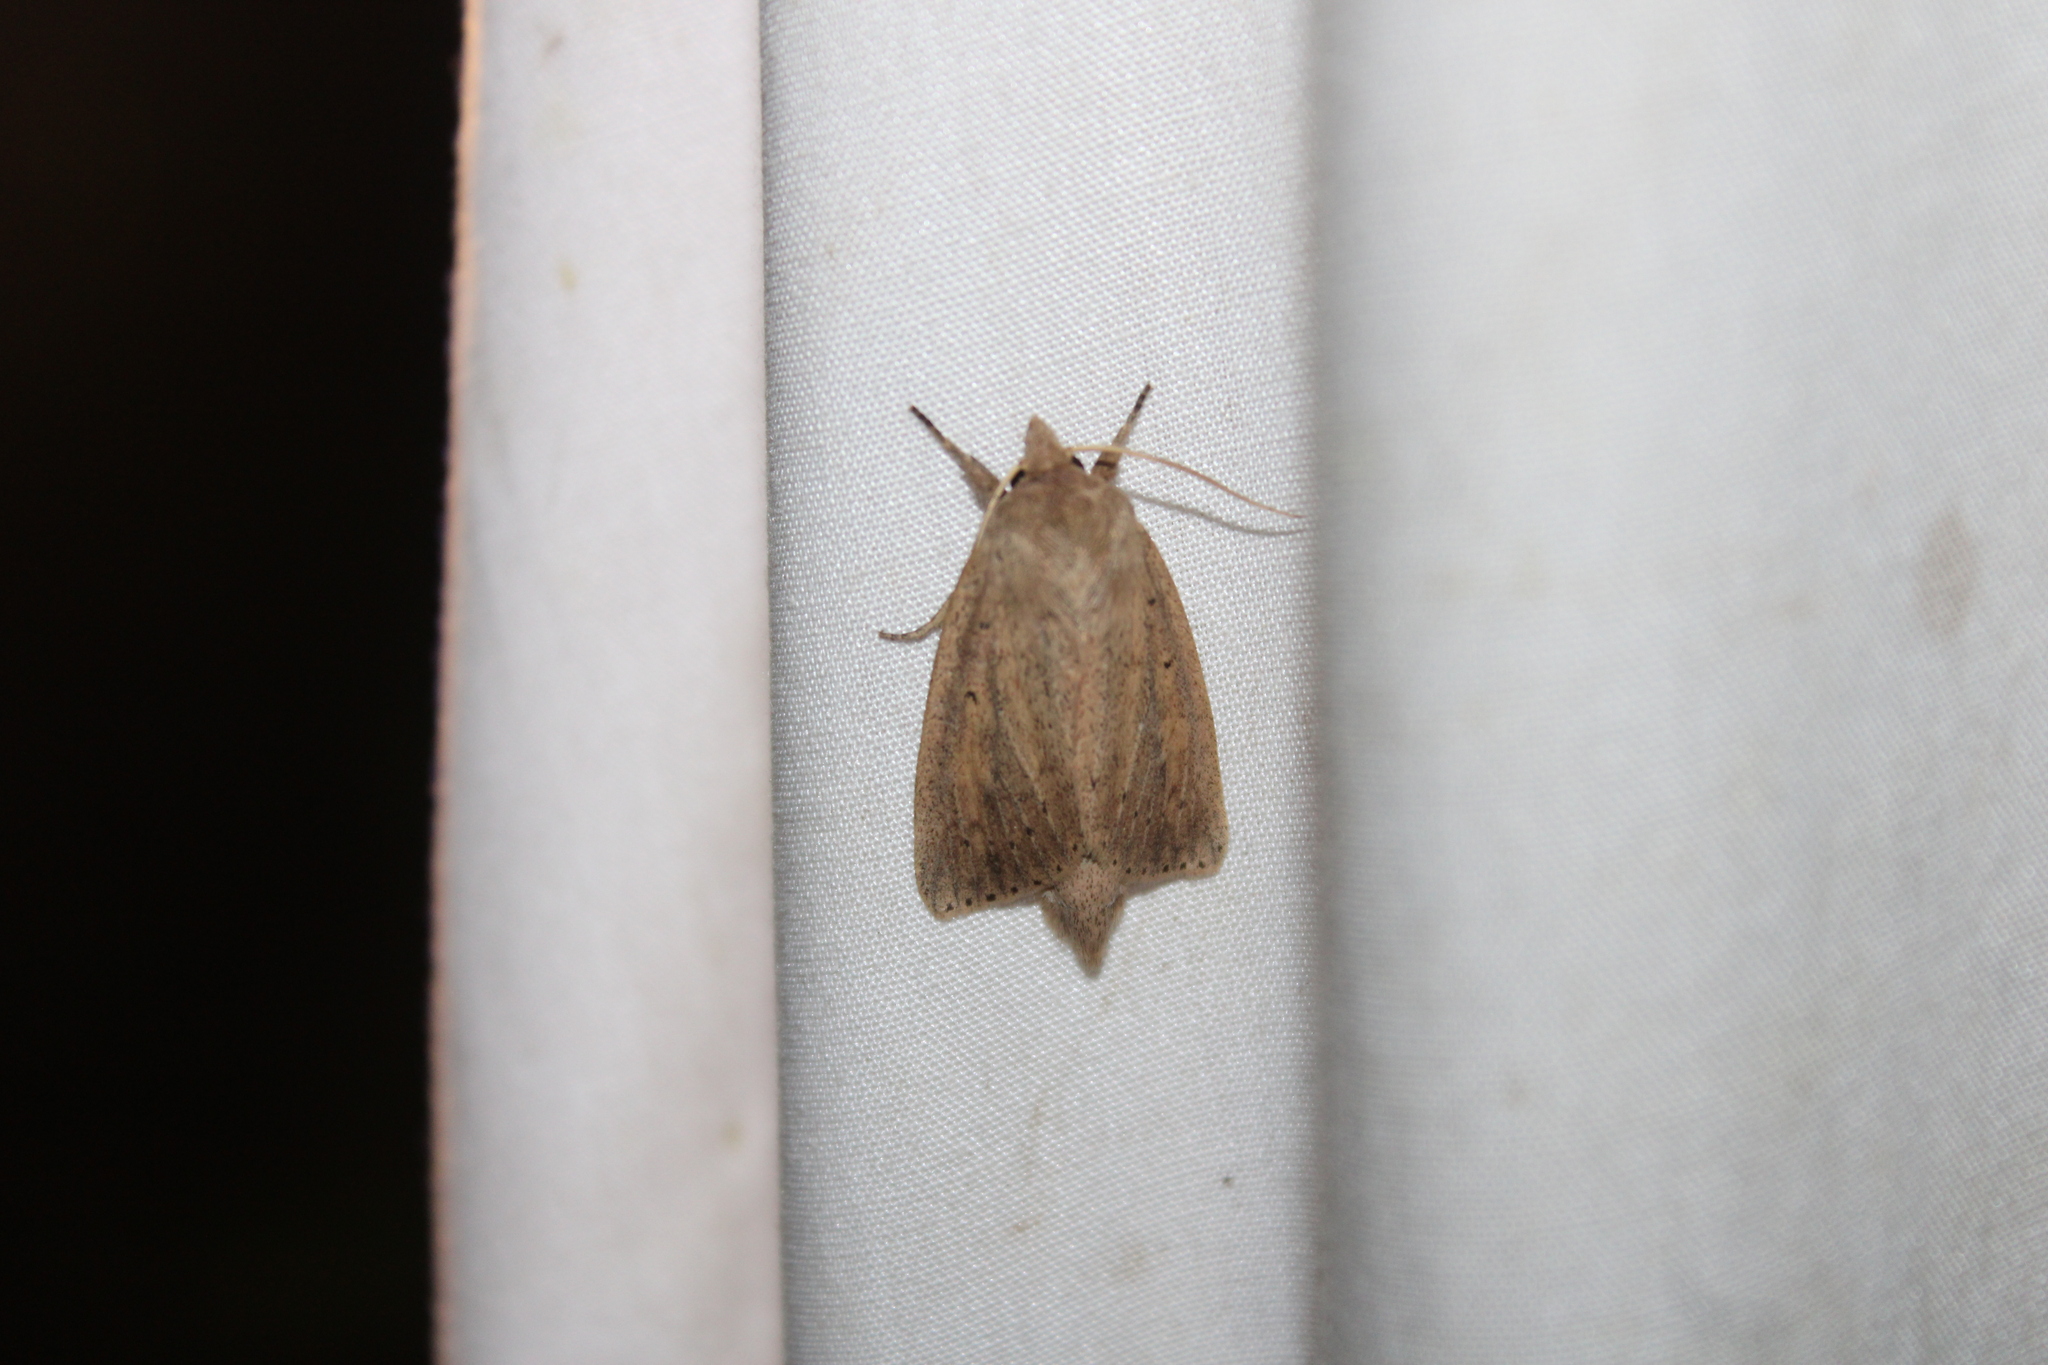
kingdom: Animalia
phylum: Arthropoda
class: Insecta
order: Lepidoptera
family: Noctuidae
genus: Globia
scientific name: Globia oblonga
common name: Oblong sedge borer moth
